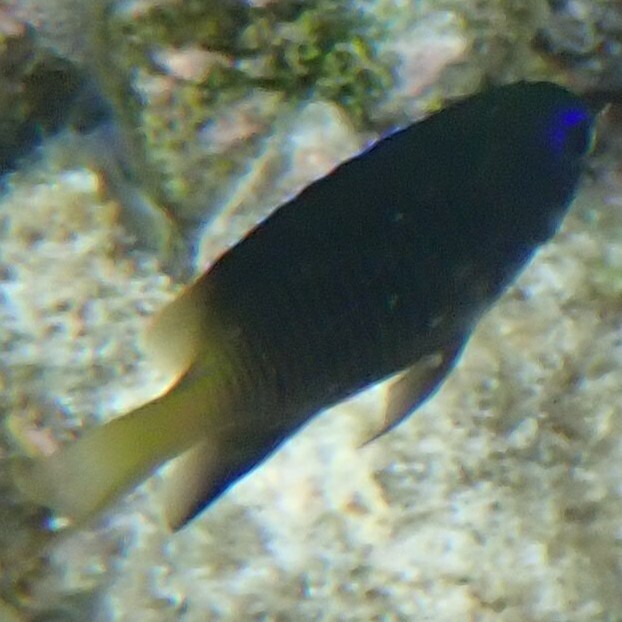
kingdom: Animalia
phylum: Chordata
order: Perciformes
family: Pomacentridae
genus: Plectroglyphidodon
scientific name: Plectroglyphidodon johnstonianus
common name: Johnston damsel
